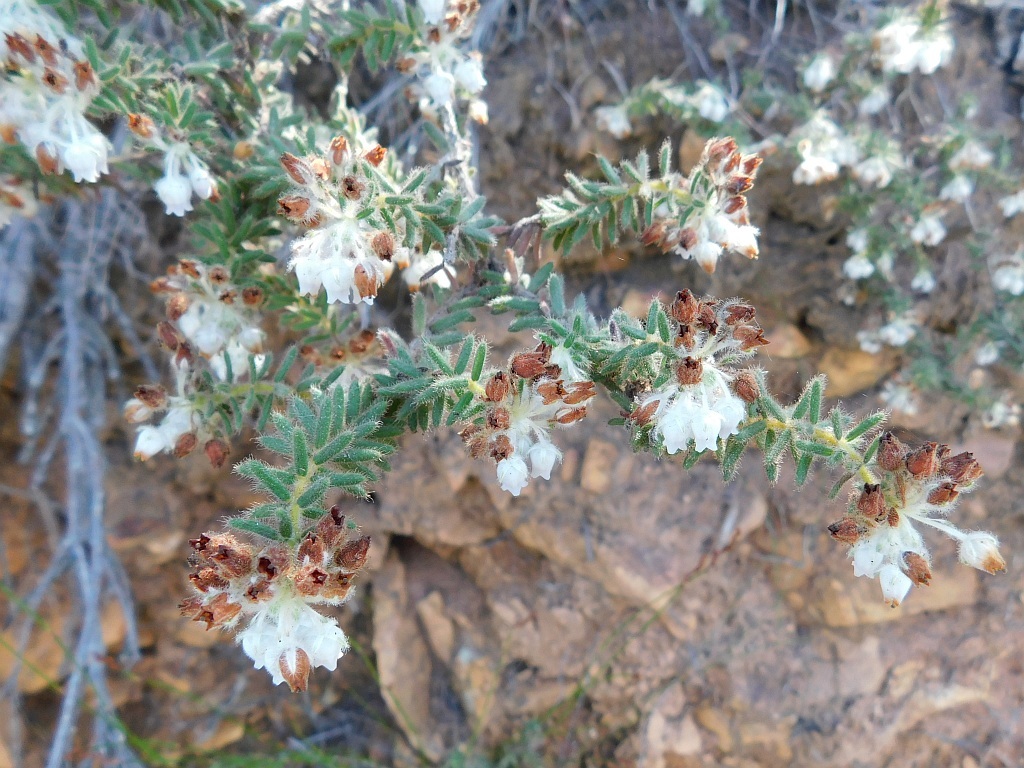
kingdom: Plantae
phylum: Tracheophyta
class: Magnoliopsida
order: Ericales
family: Ericaceae
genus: Erica
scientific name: Erica pannosa
